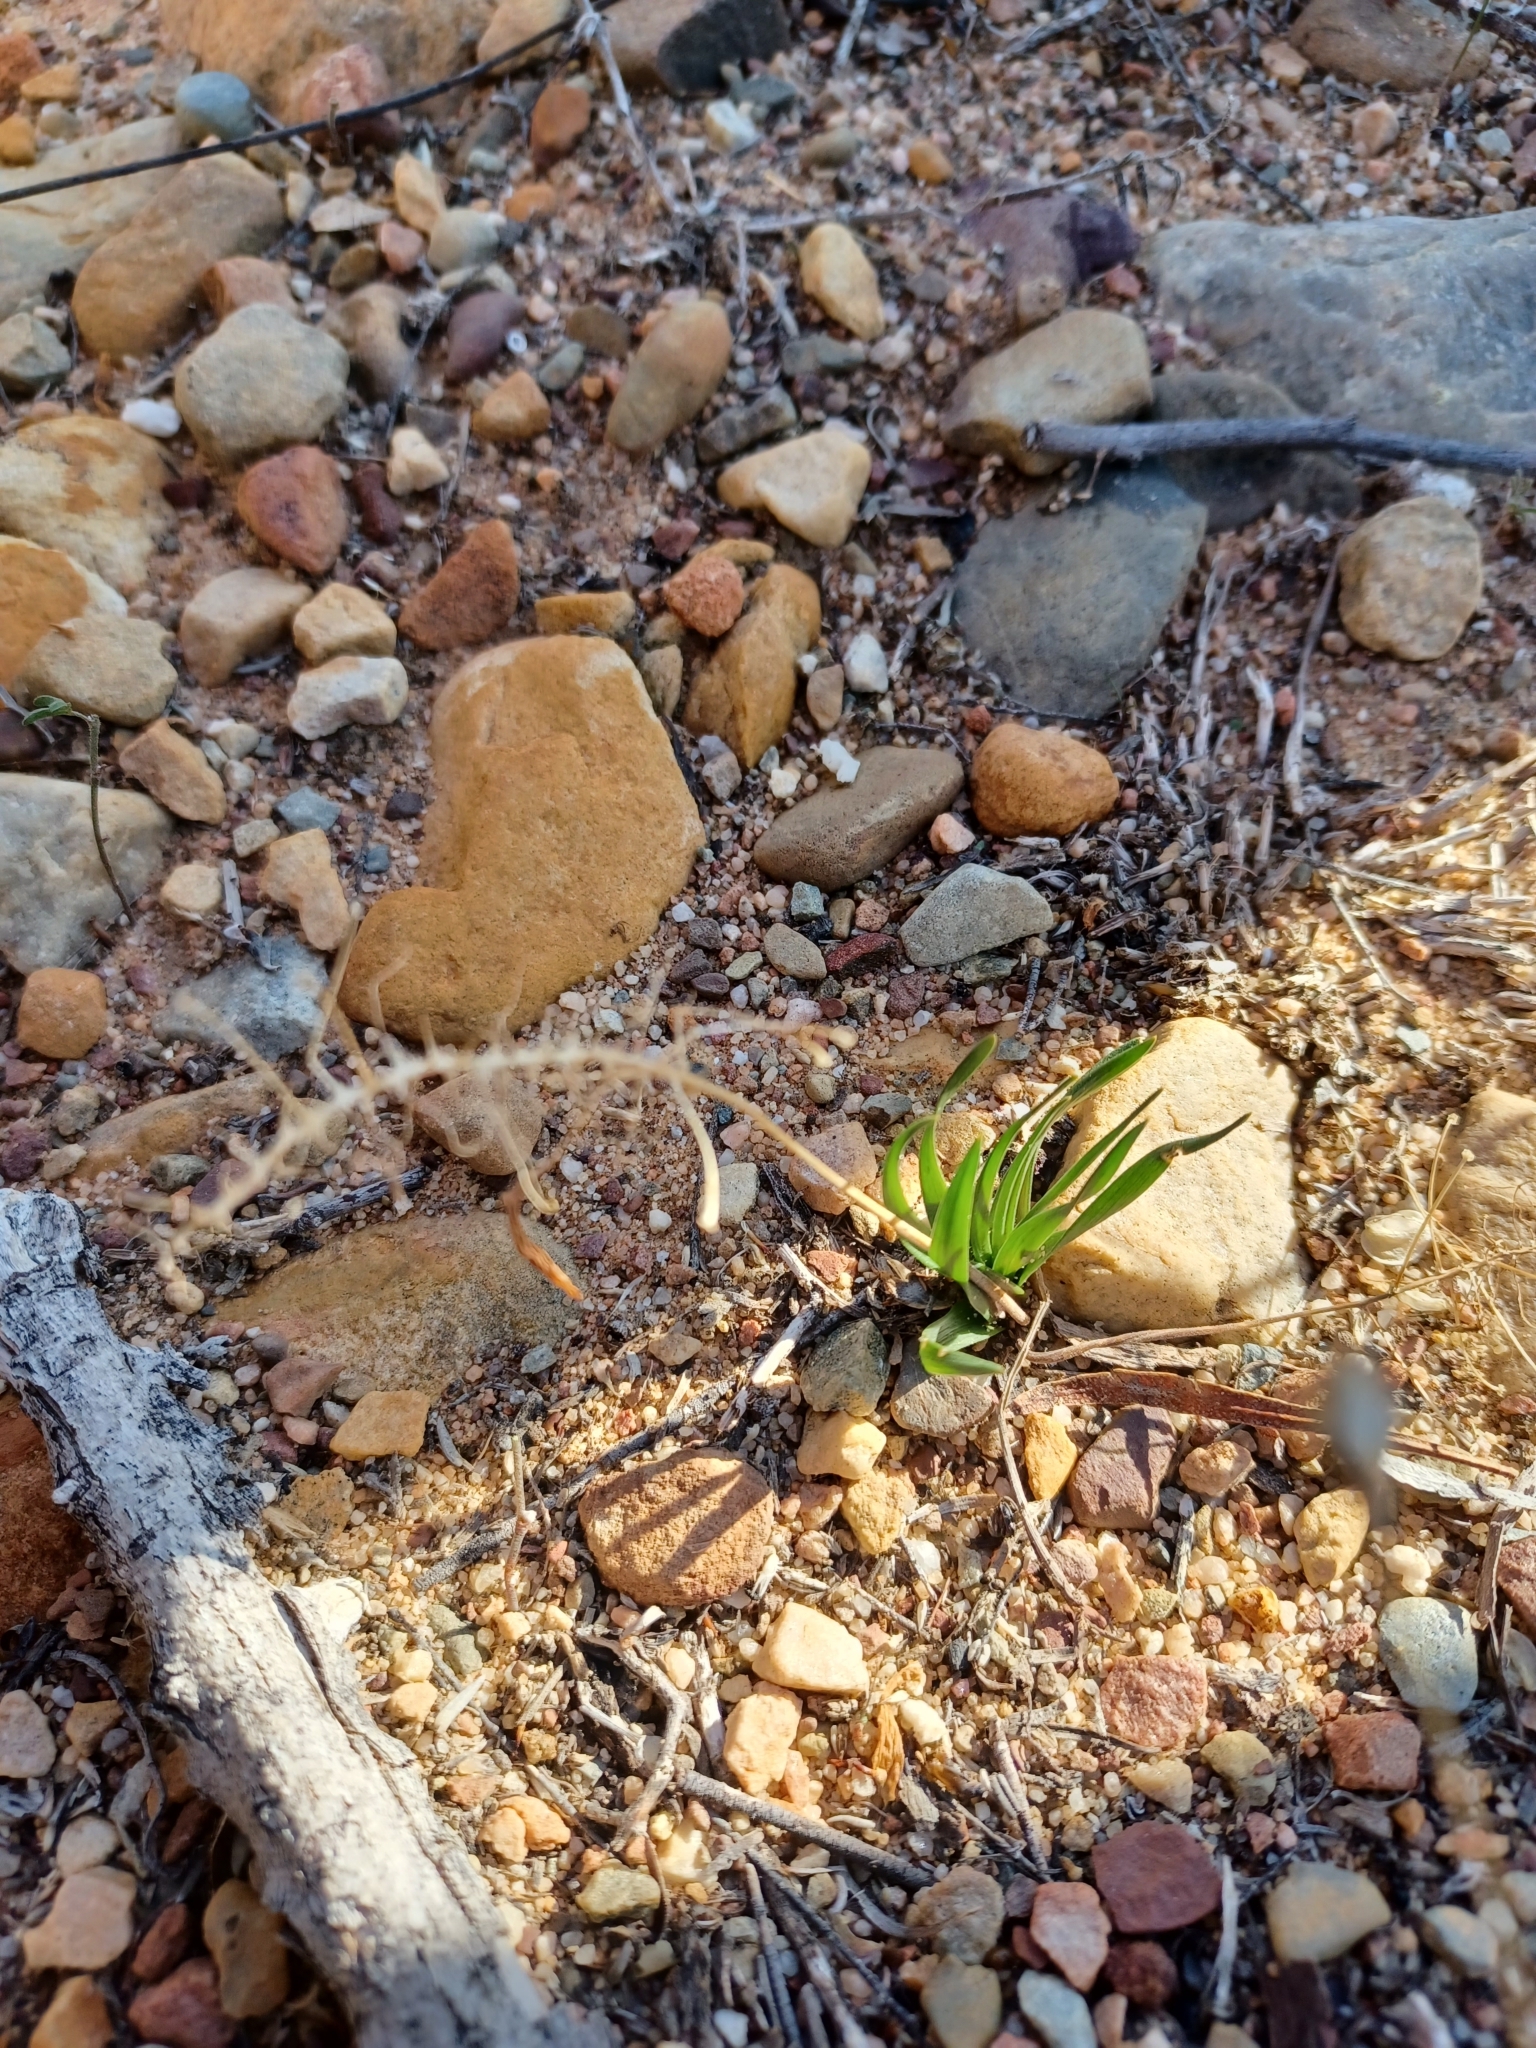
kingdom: Plantae
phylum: Tracheophyta
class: Liliopsida
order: Asparagales
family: Asparagaceae
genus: Fusifilum
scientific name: Fusifilum physodes
